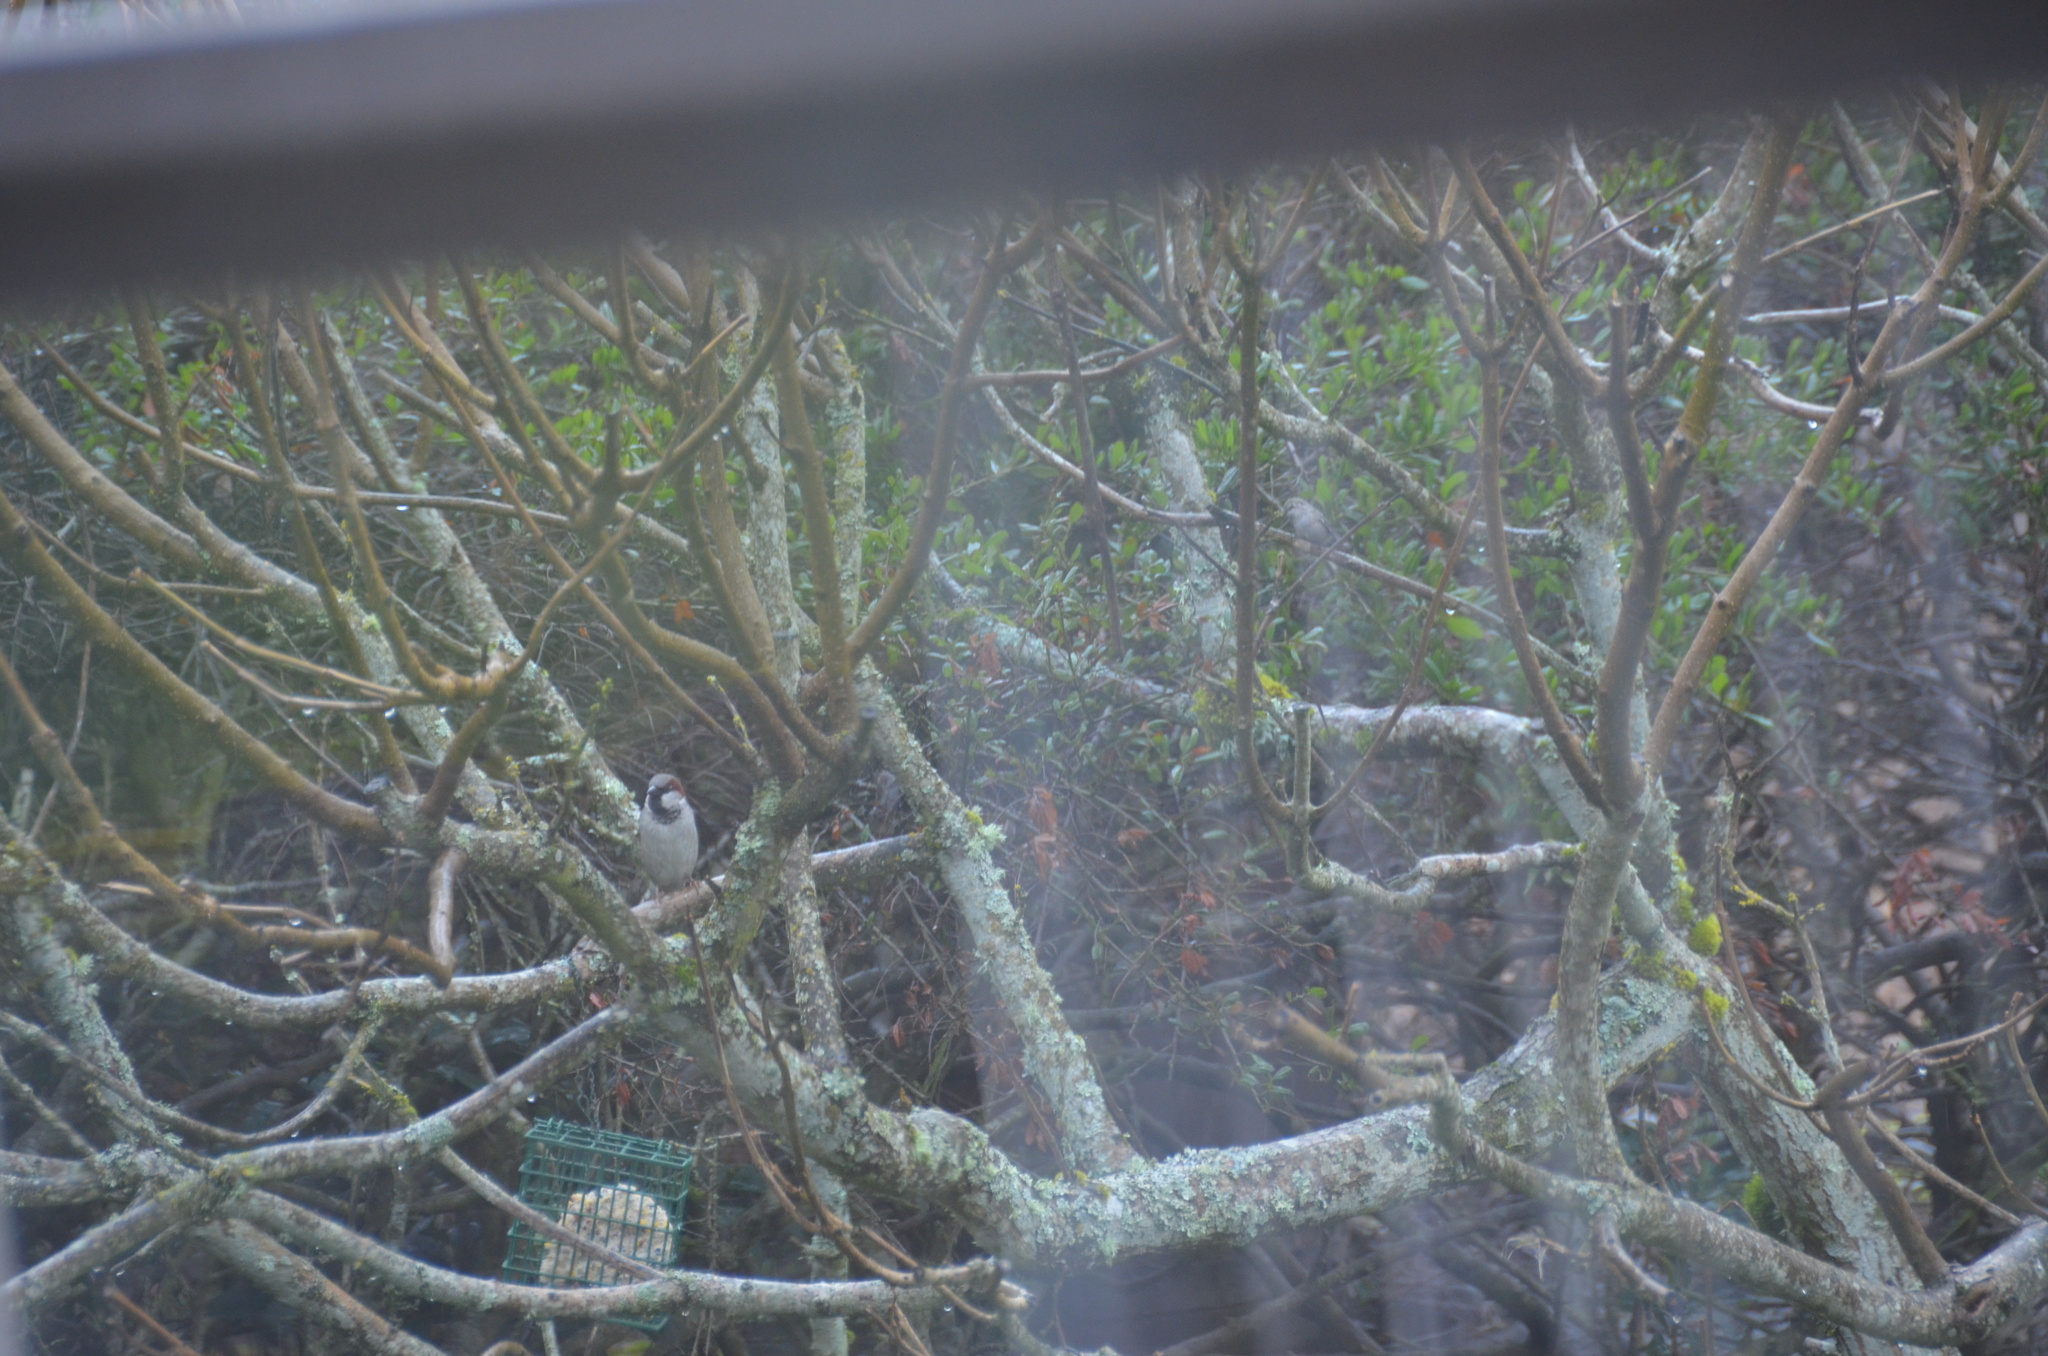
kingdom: Animalia
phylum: Chordata
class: Aves
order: Passeriformes
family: Passeridae
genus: Passer
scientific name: Passer domesticus
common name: House sparrow
